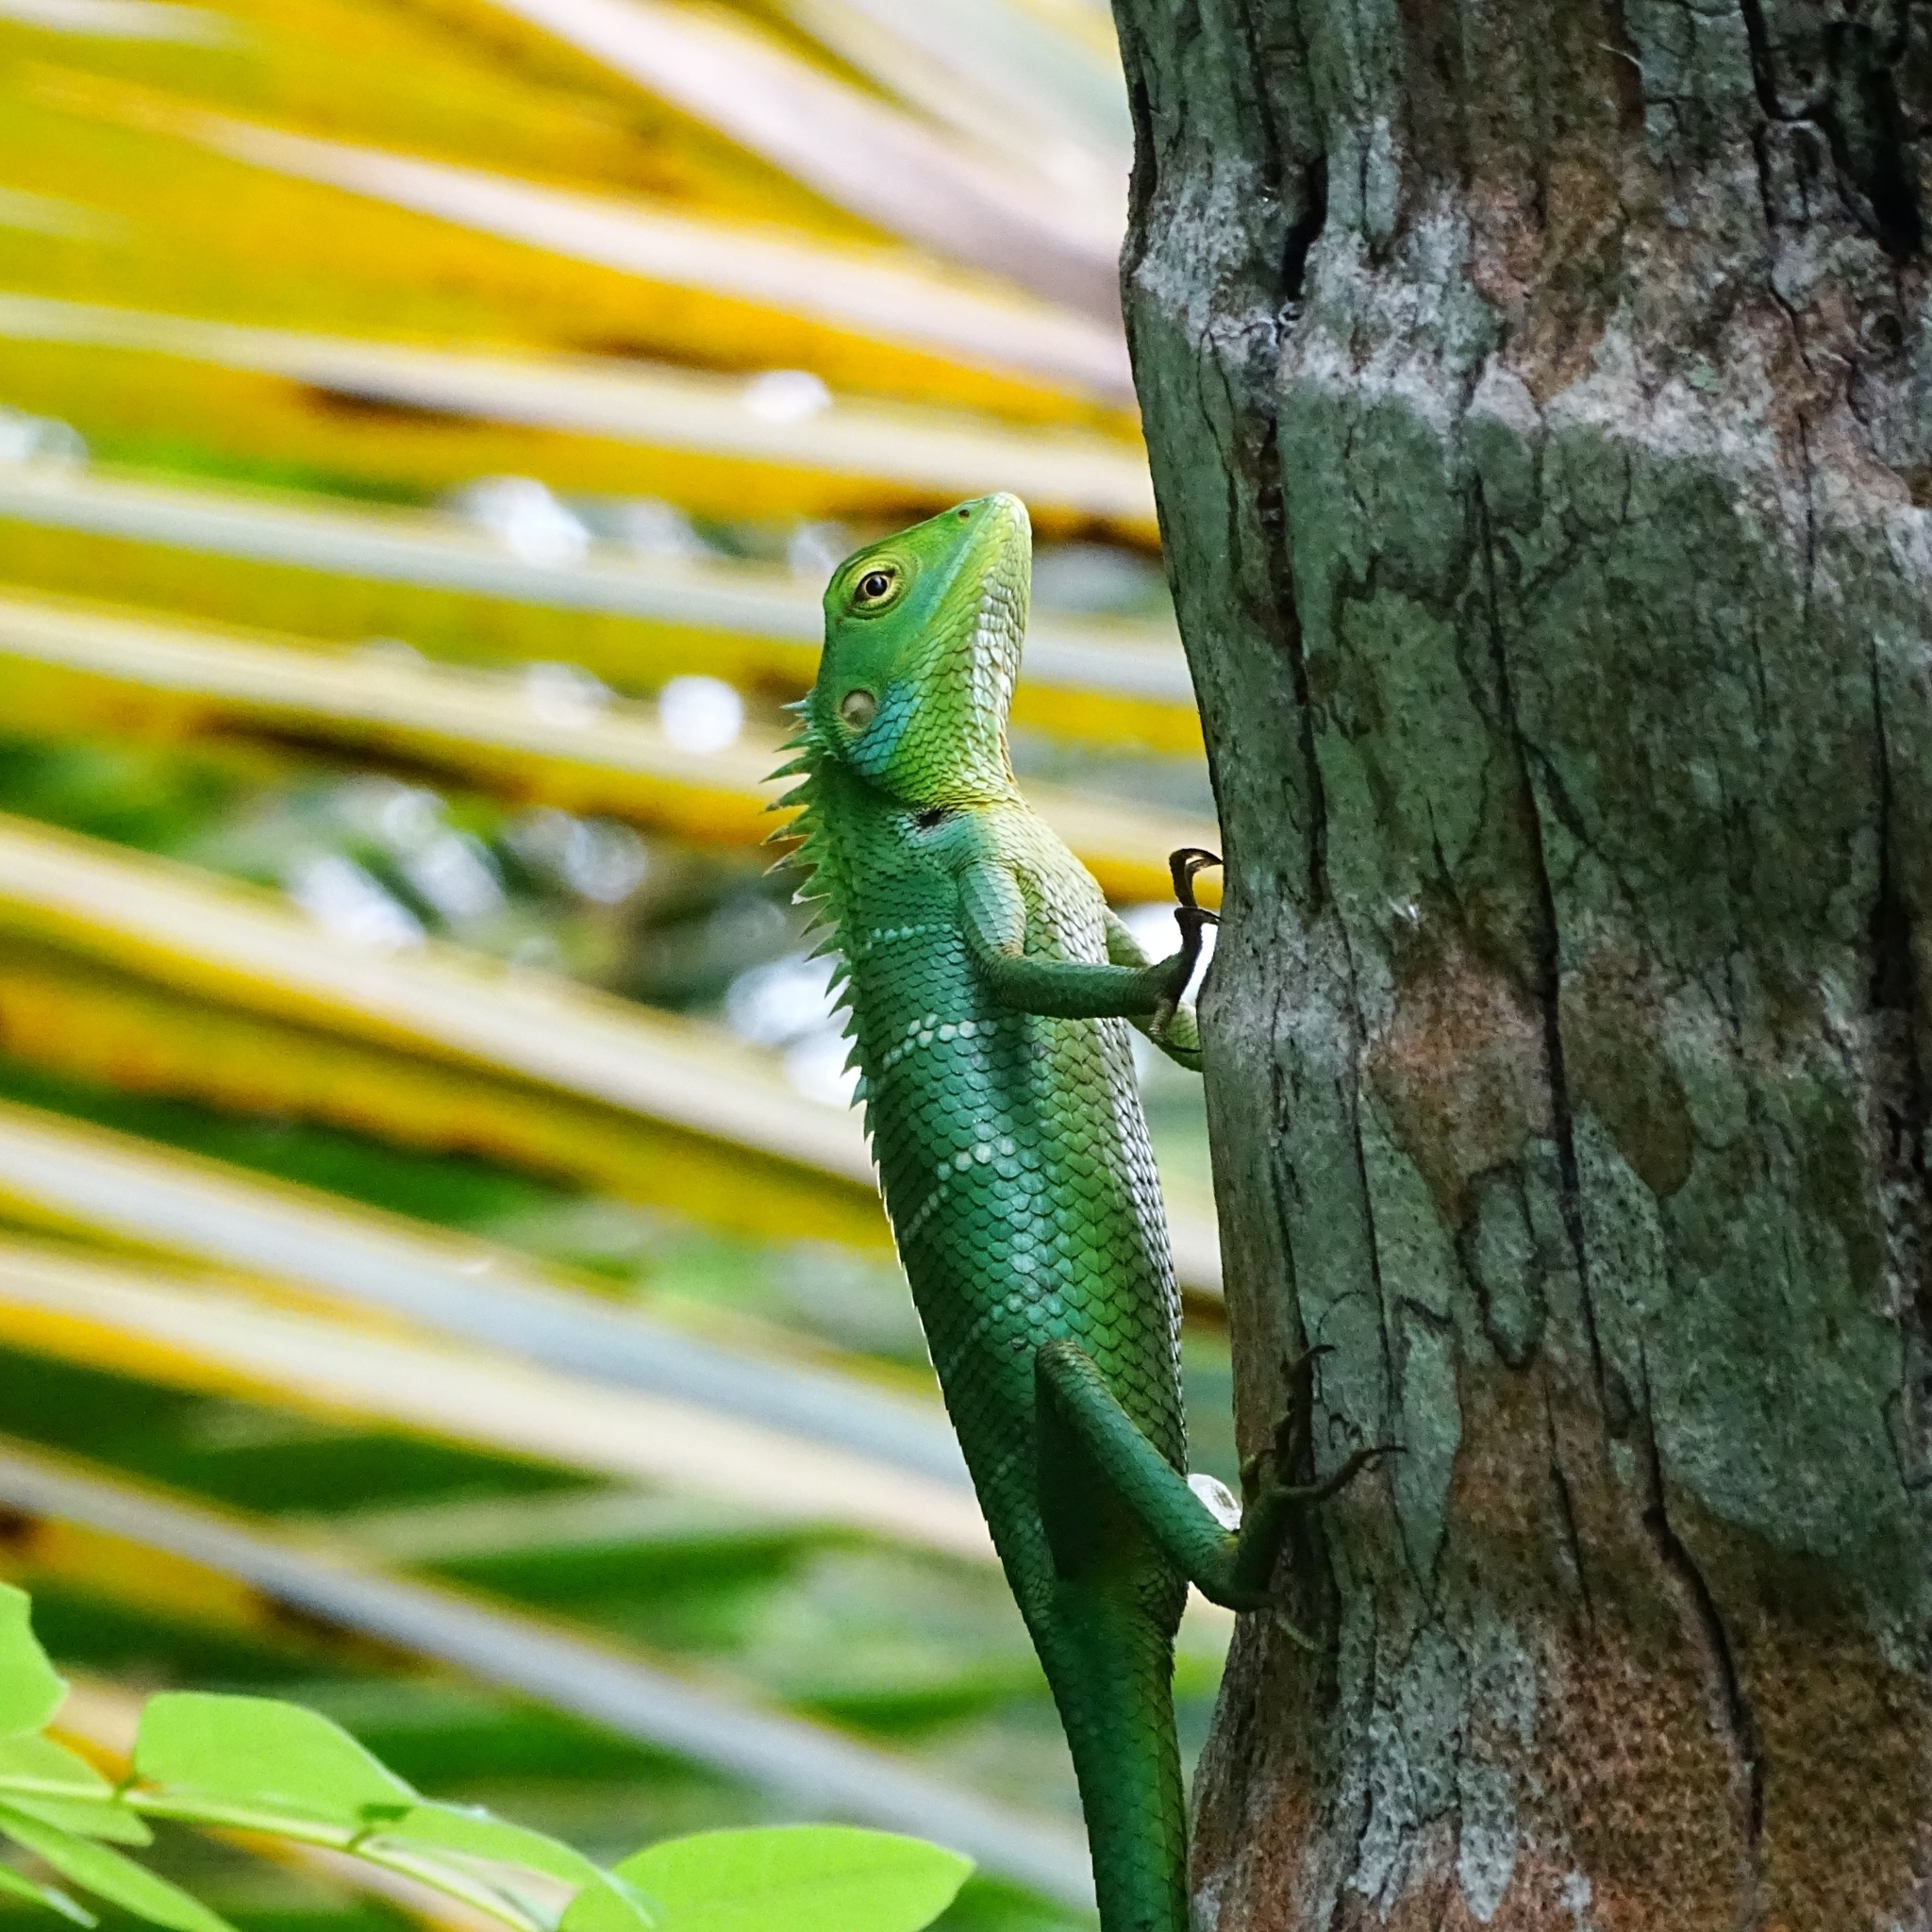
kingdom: Animalia
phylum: Chordata
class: Squamata
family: Agamidae
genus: Calotes
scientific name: Calotes calotes
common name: Common green forest lizard
